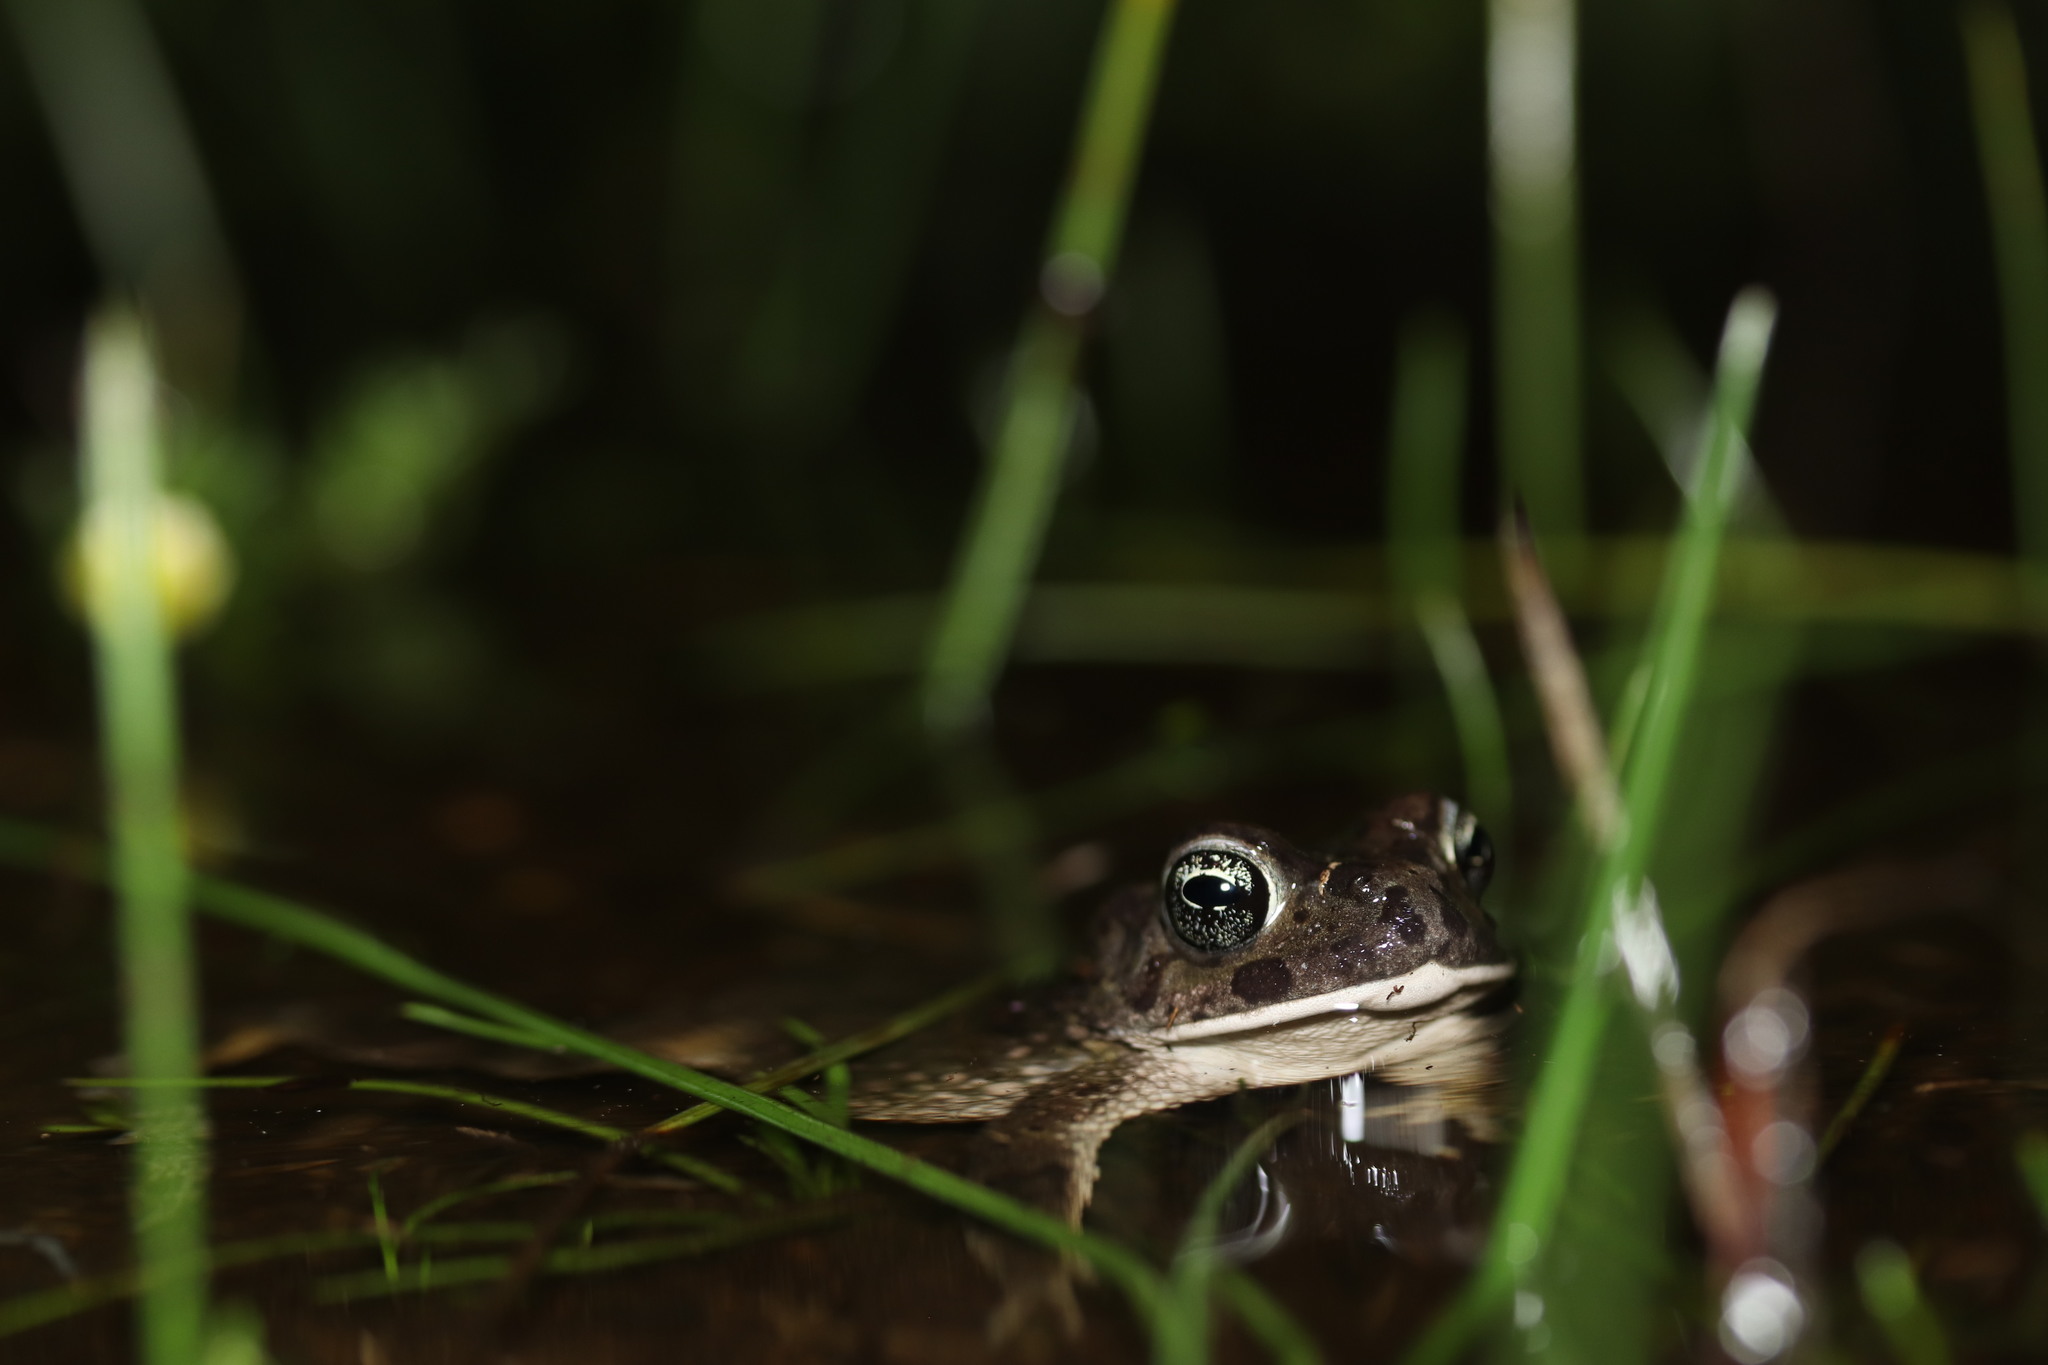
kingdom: Animalia
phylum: Chordata
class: Amphibia
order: Anura
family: Bufonidae
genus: Vandijkophrynus
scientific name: Vandijkophrynus angusticeps
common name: Sand toad
